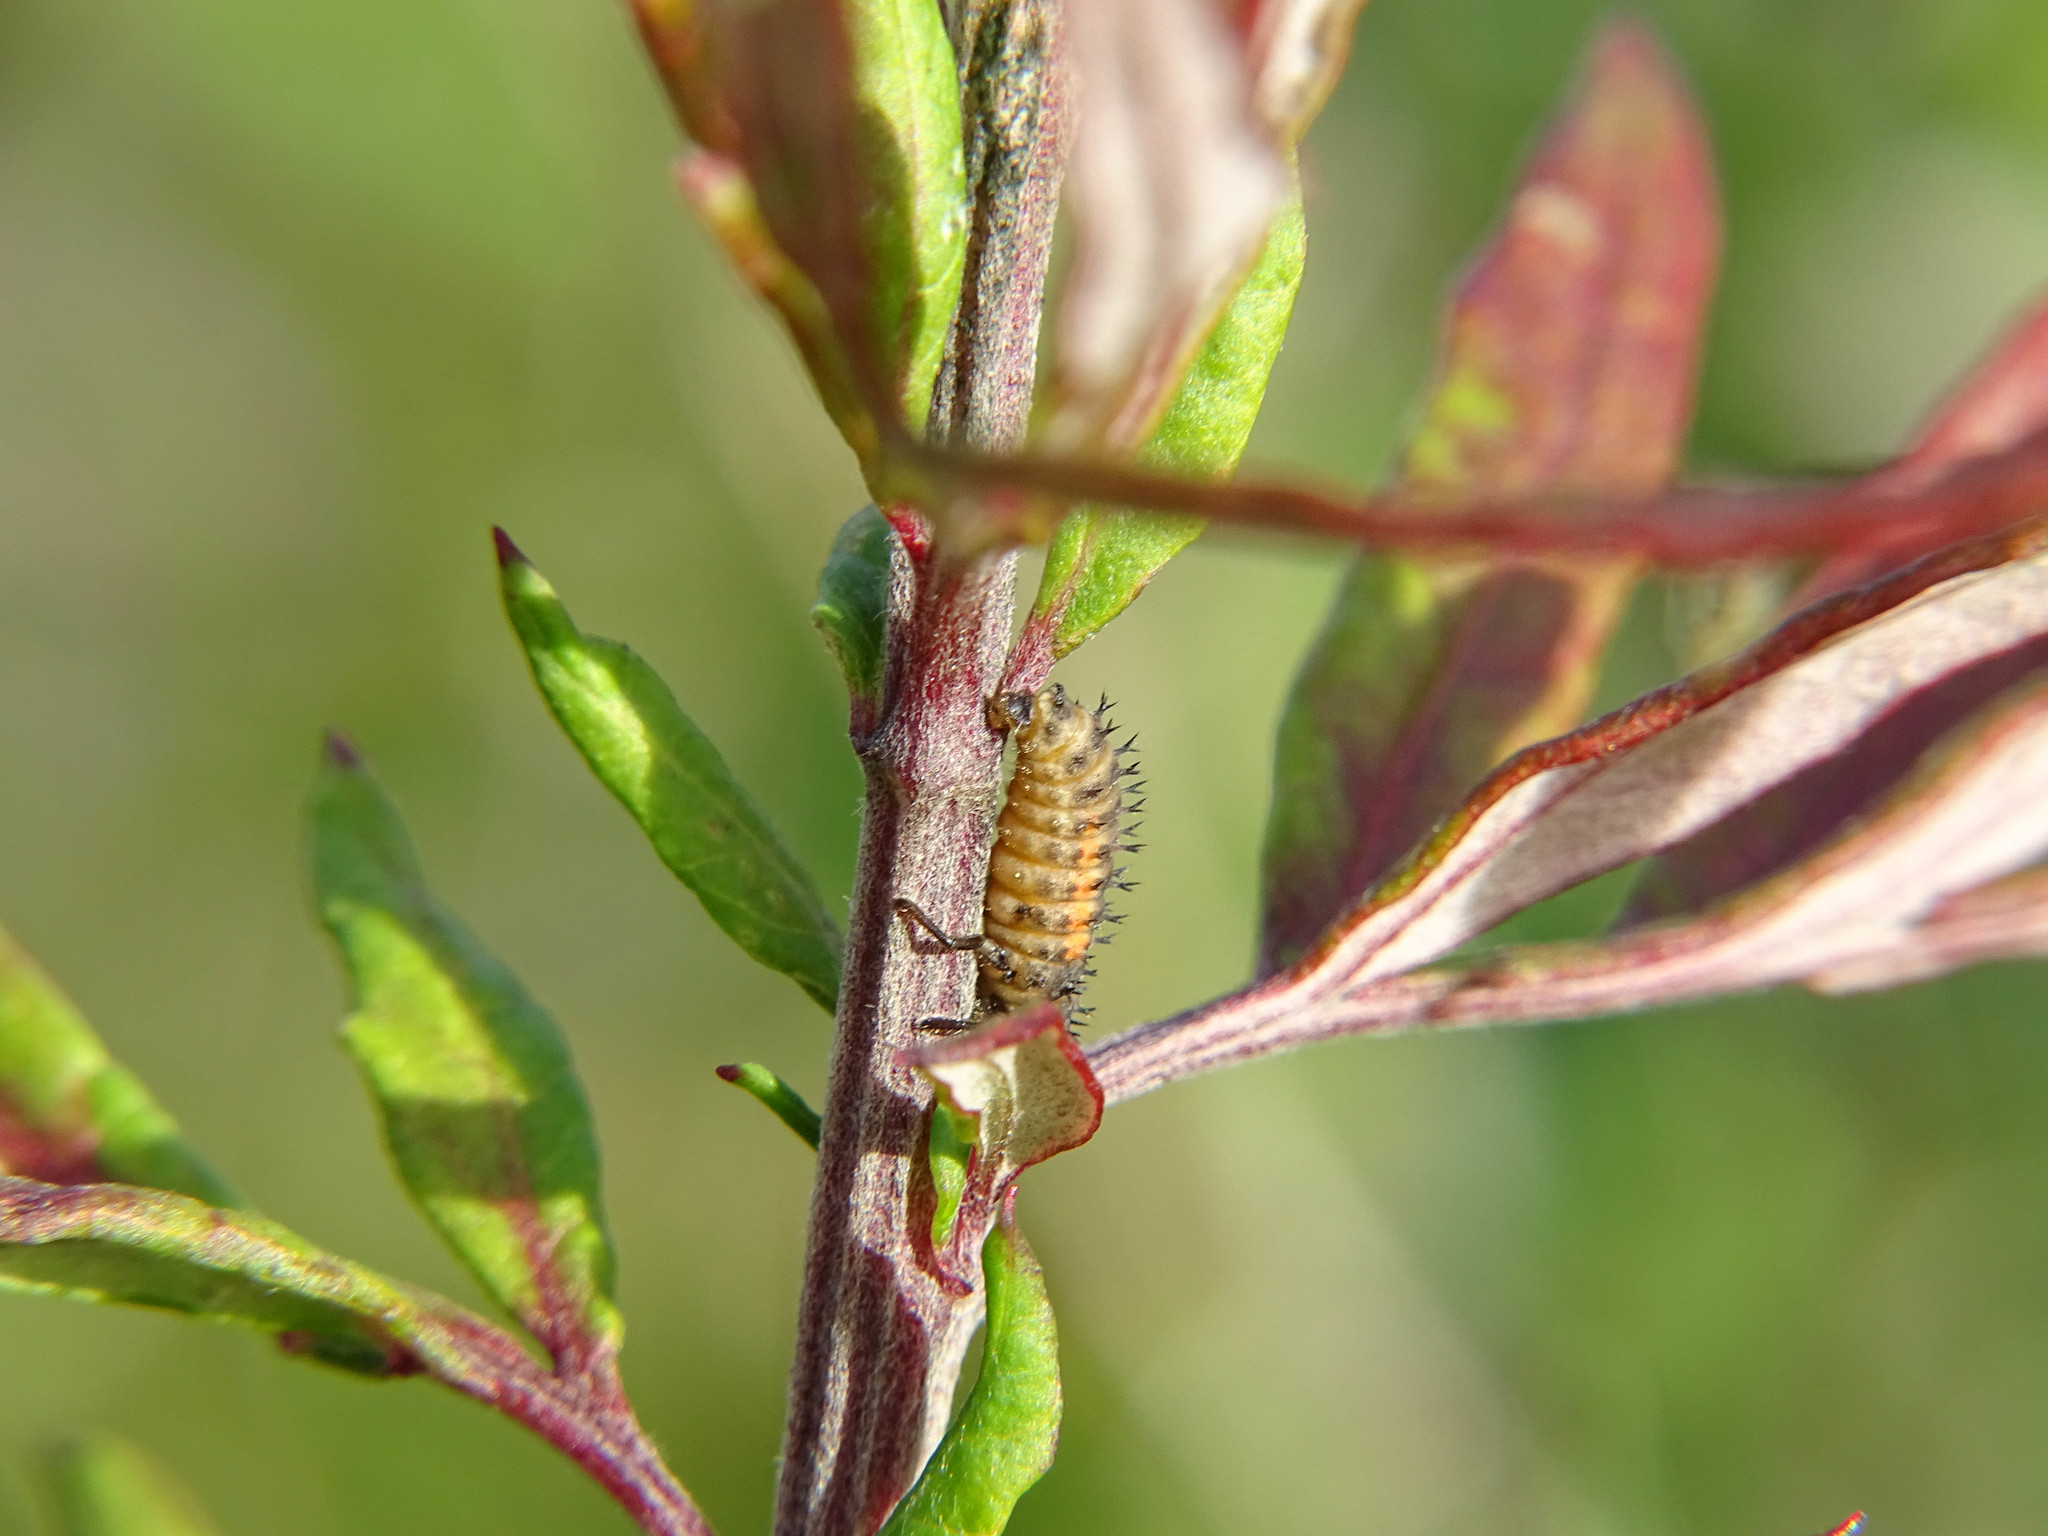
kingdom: Animalia
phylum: Arthropoda
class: Insecta
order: Coleoptera
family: Coccinellidae
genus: Harmonia
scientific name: Harmonia axyridis
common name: Harlequin ladybird
